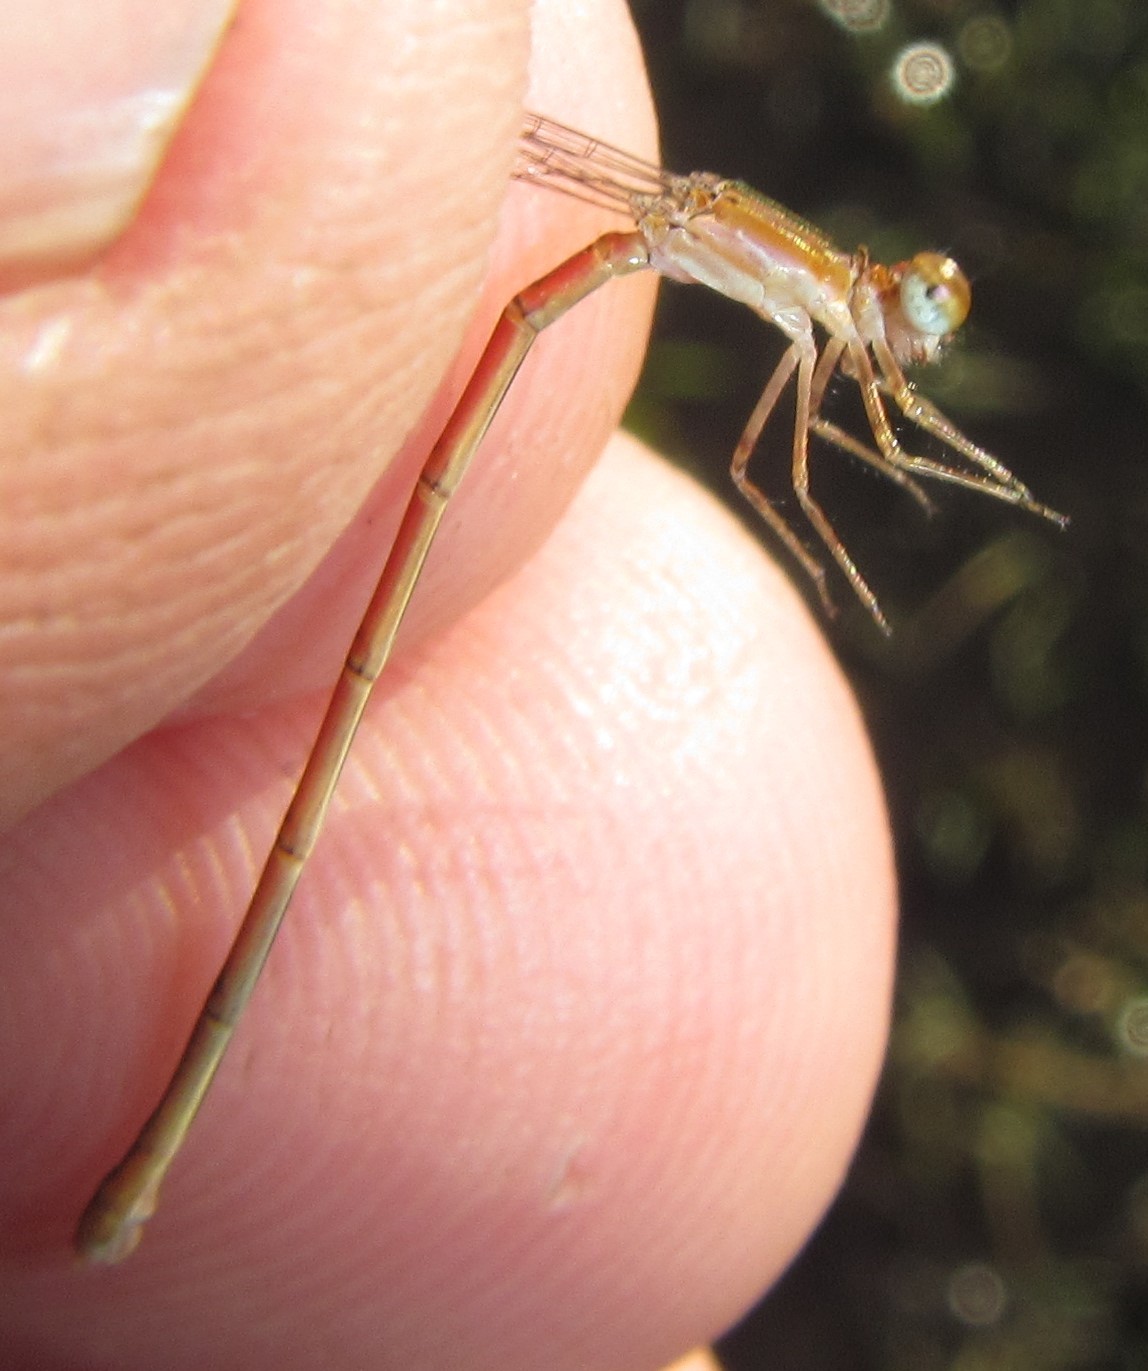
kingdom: Animalia
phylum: Arthropoda
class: Insecta
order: Odonata
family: Coenagrionidae
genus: Agriocnemis
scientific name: Agriocnemis gratiosa
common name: Gracious wisp
